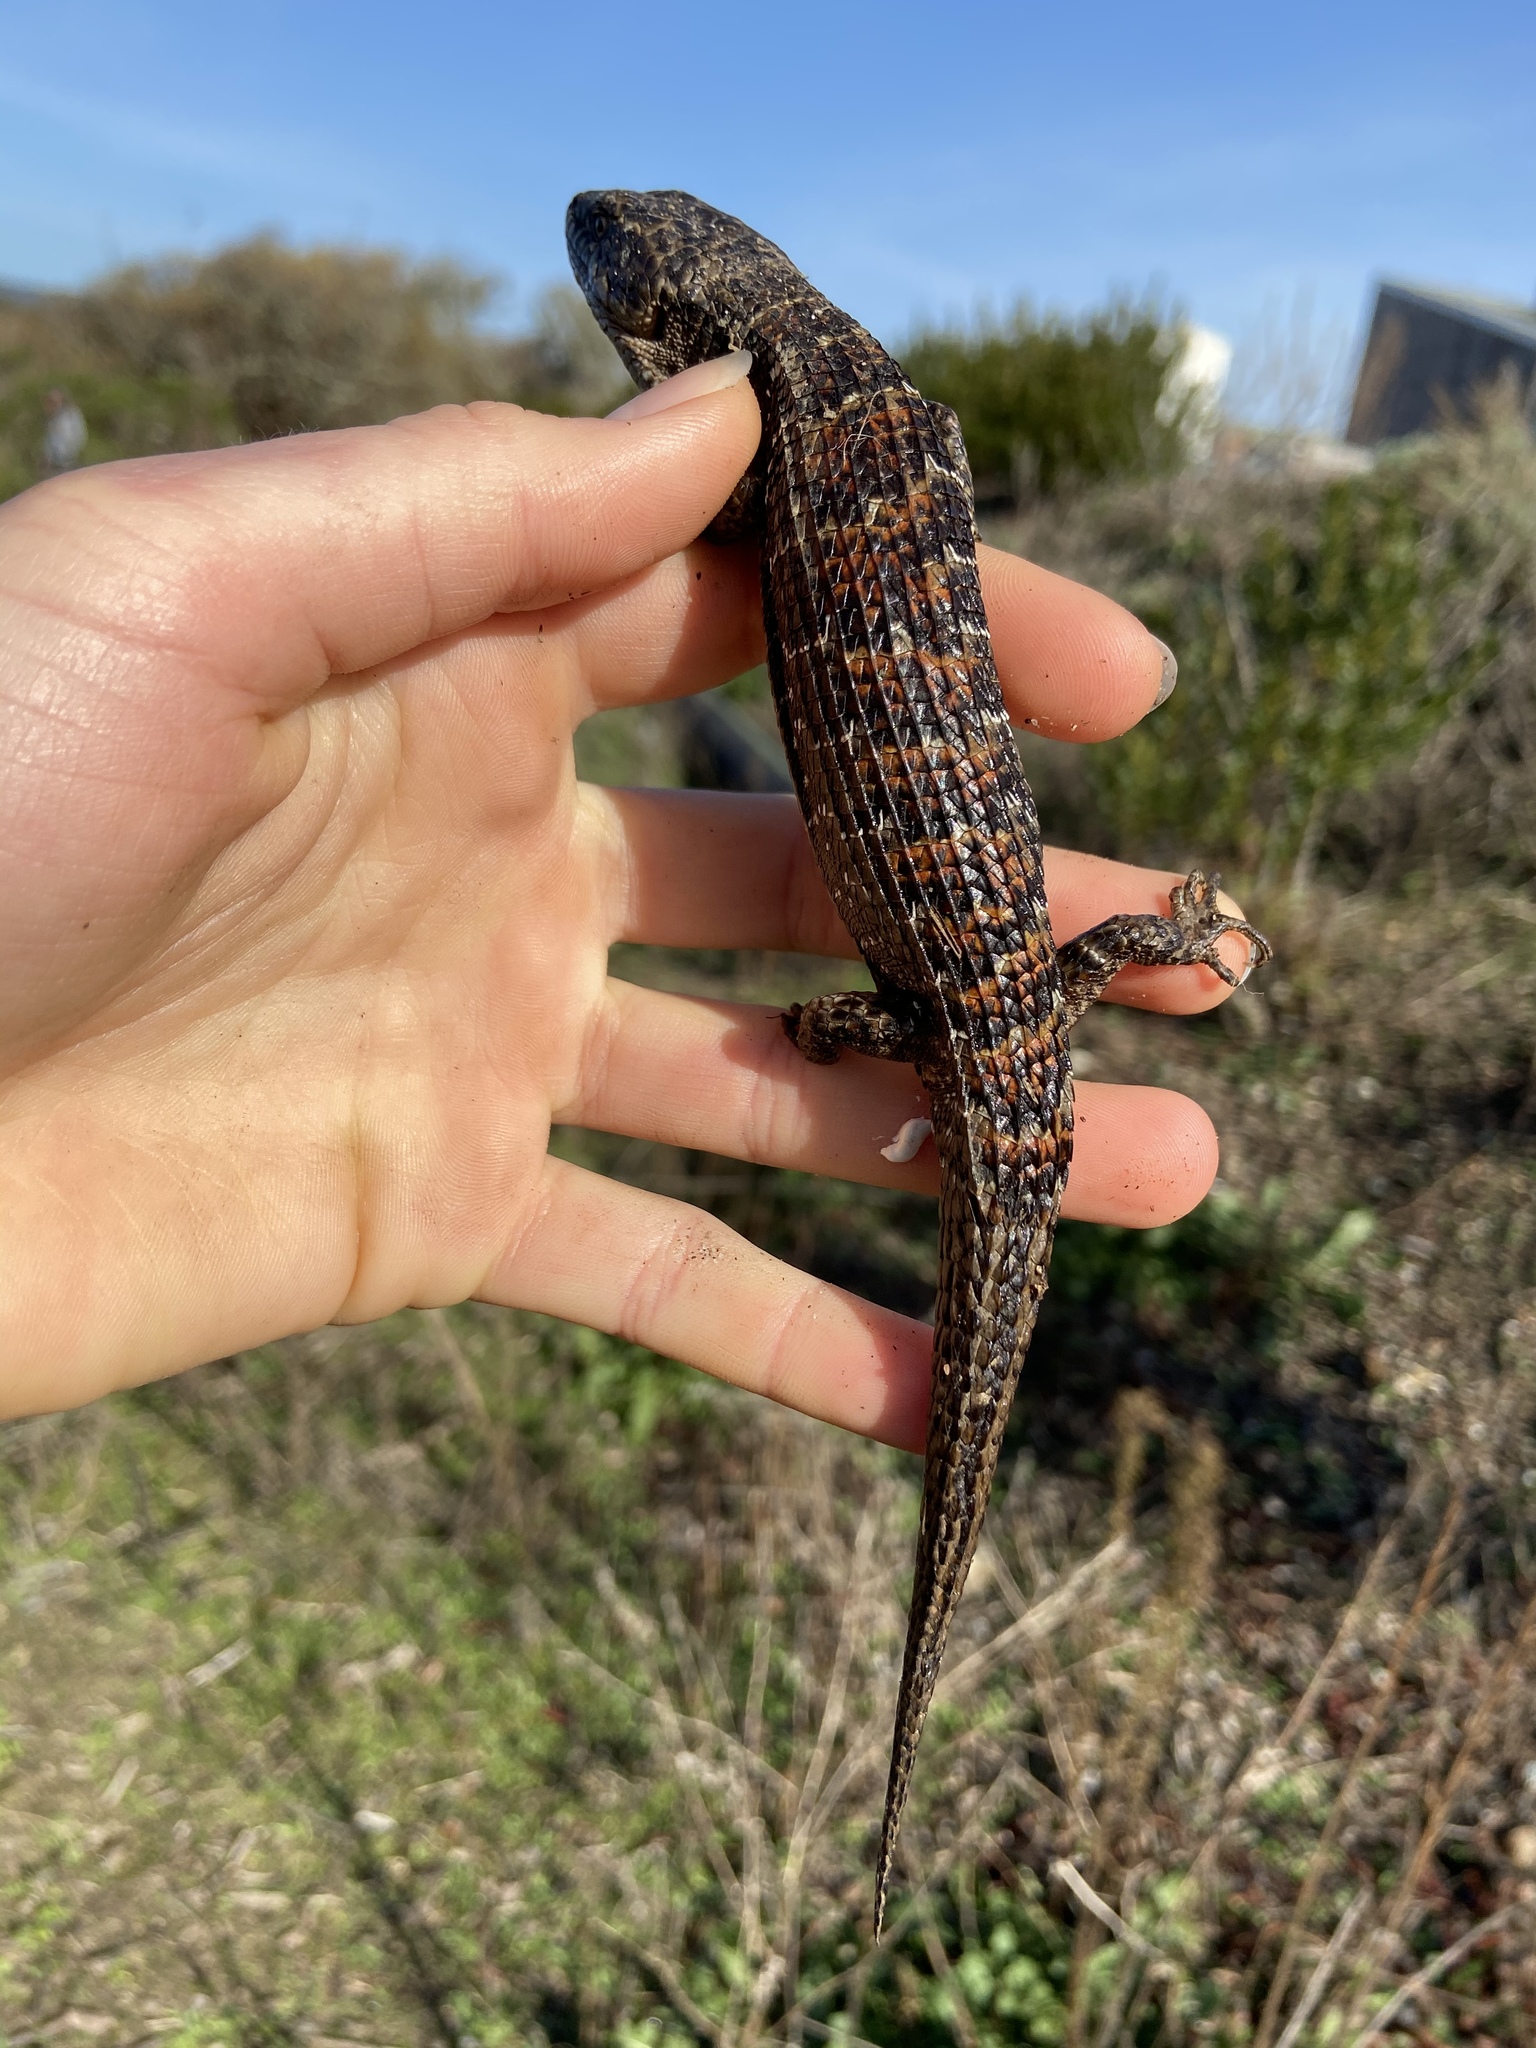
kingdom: Animalia
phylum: Chordata
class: Squamata
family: Anguidae
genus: Elgaria
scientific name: Elgaria multicarinata
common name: Southern alligator lizard
